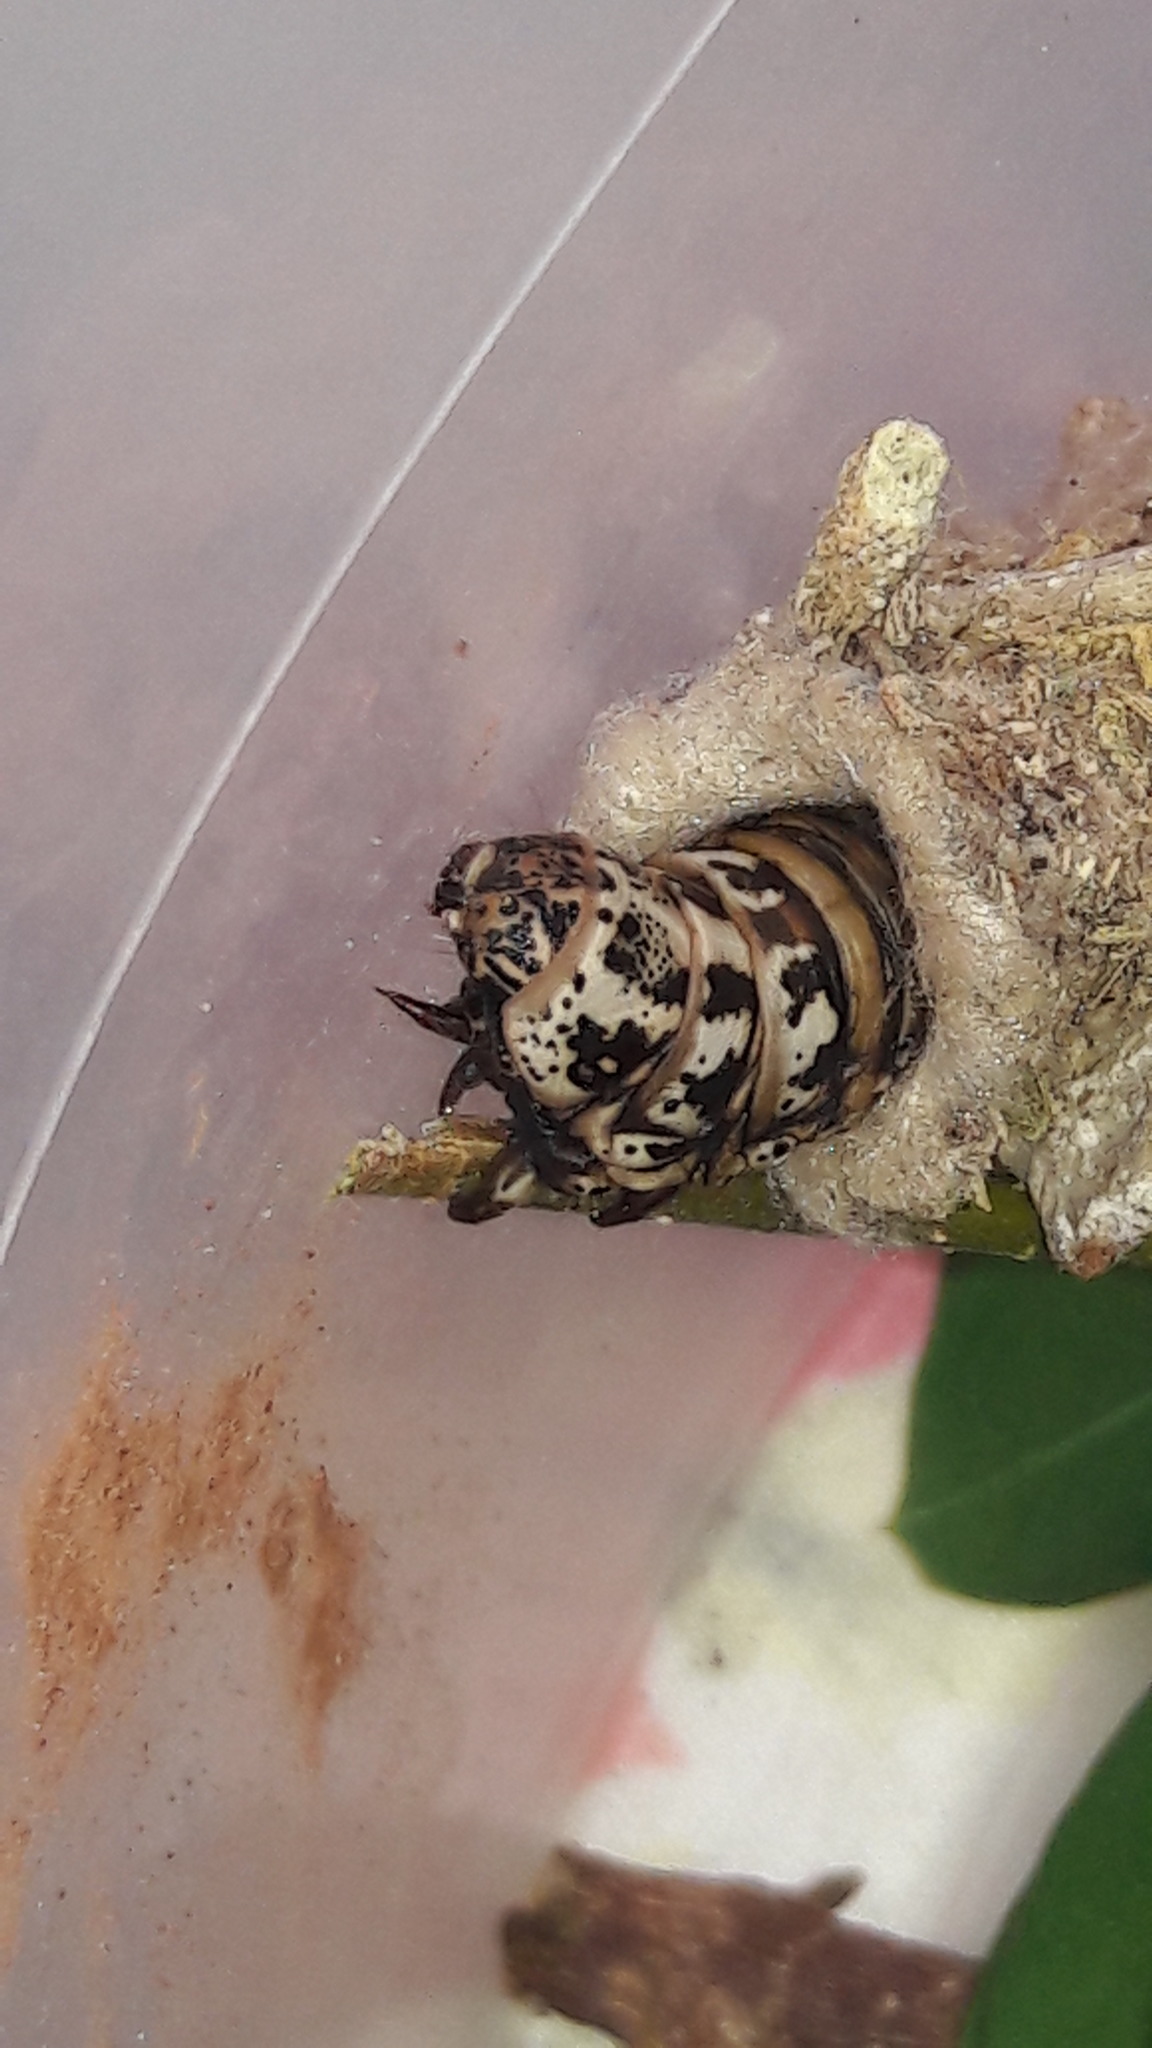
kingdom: Animalia
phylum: Arthropoda
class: Insecta
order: Lepidoptera
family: Psychidae
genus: Oiketicus
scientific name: Oiketicus kirbyi
